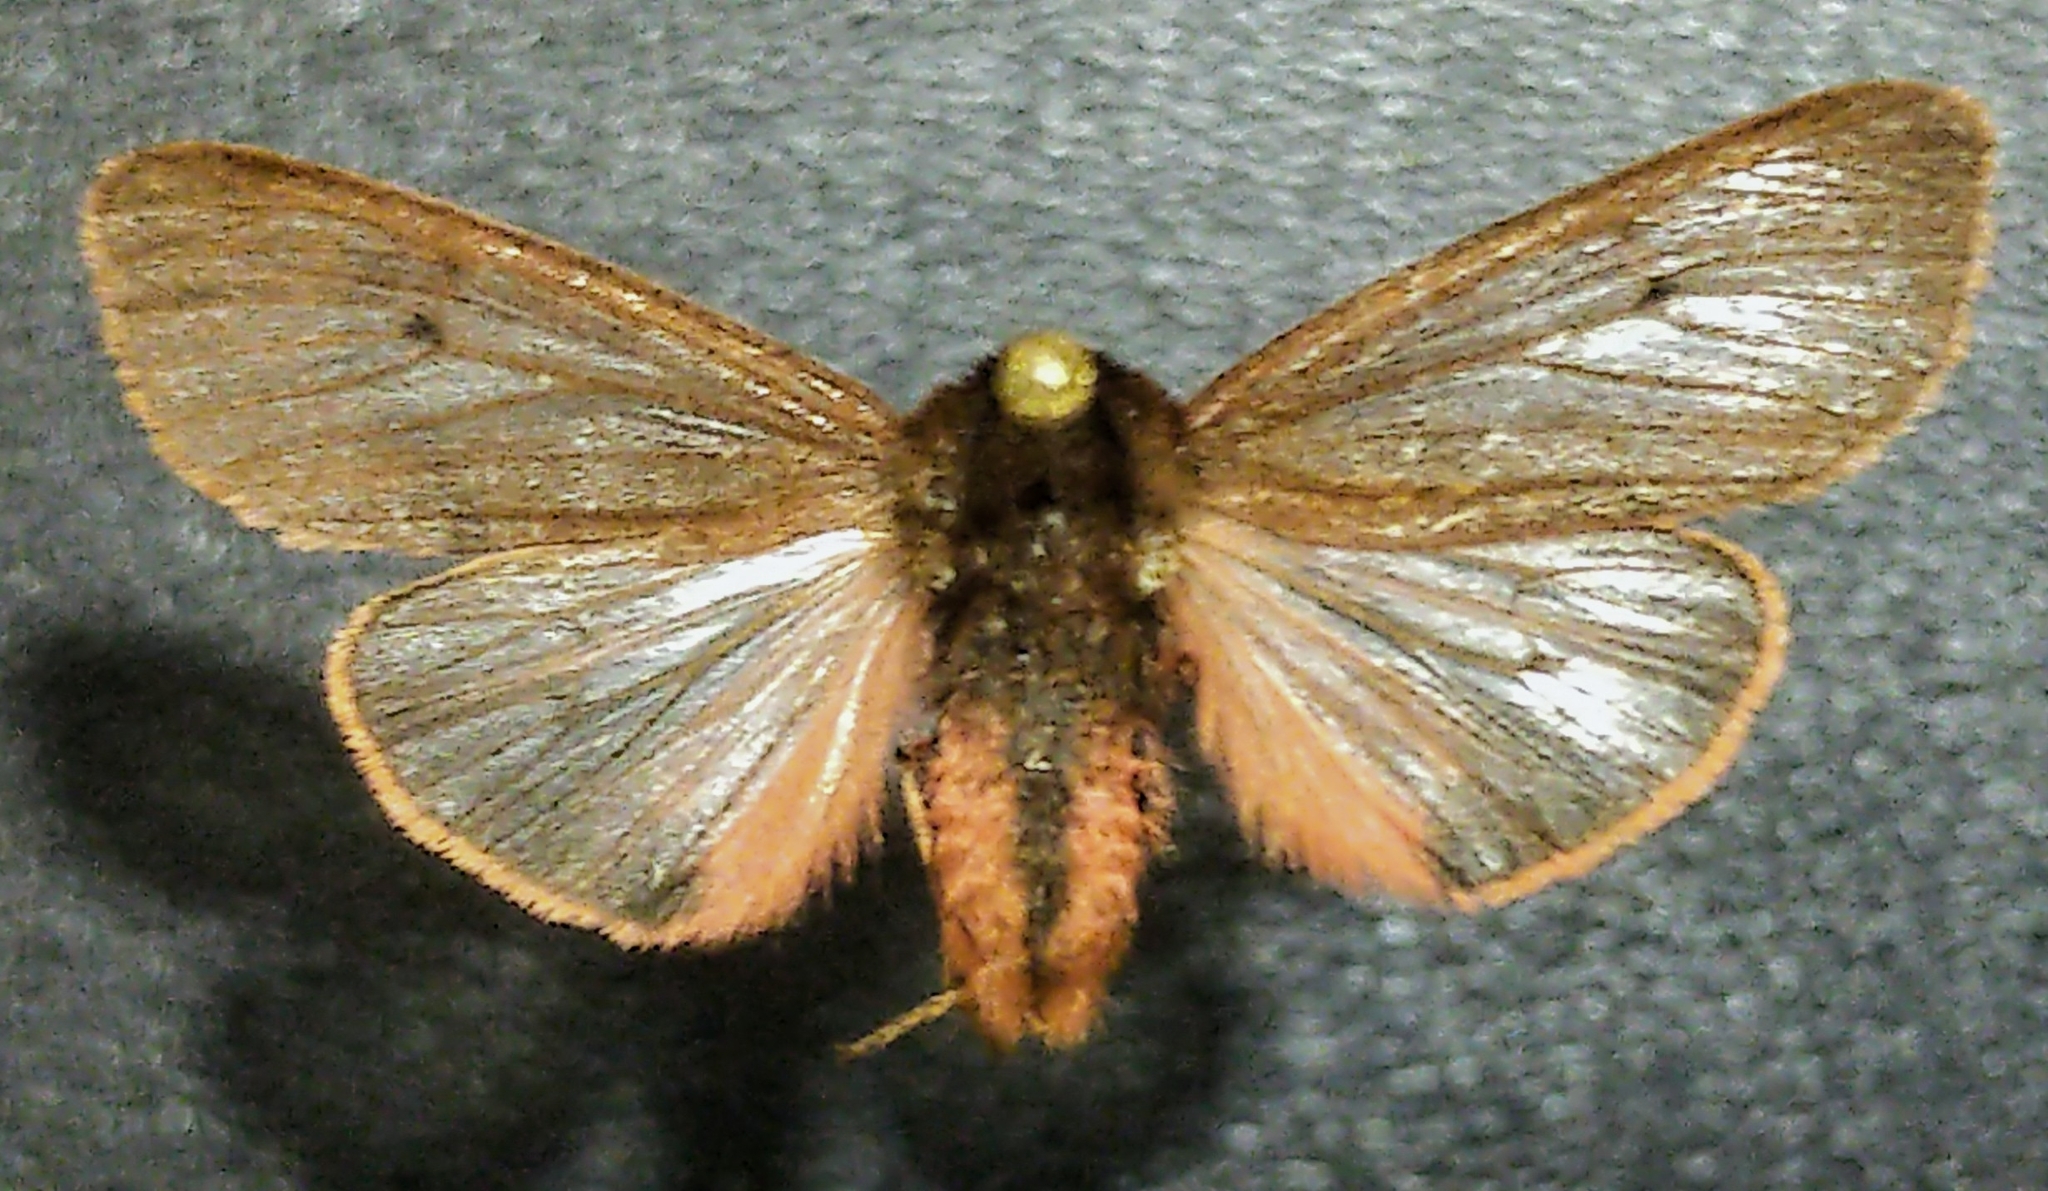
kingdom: Animalia
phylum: Arthropoda
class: Insecta
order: Lepidoptera
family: Erebidae
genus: Phragmatobia
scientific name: Phragmatobia fuliginosa
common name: Ruby tiger
